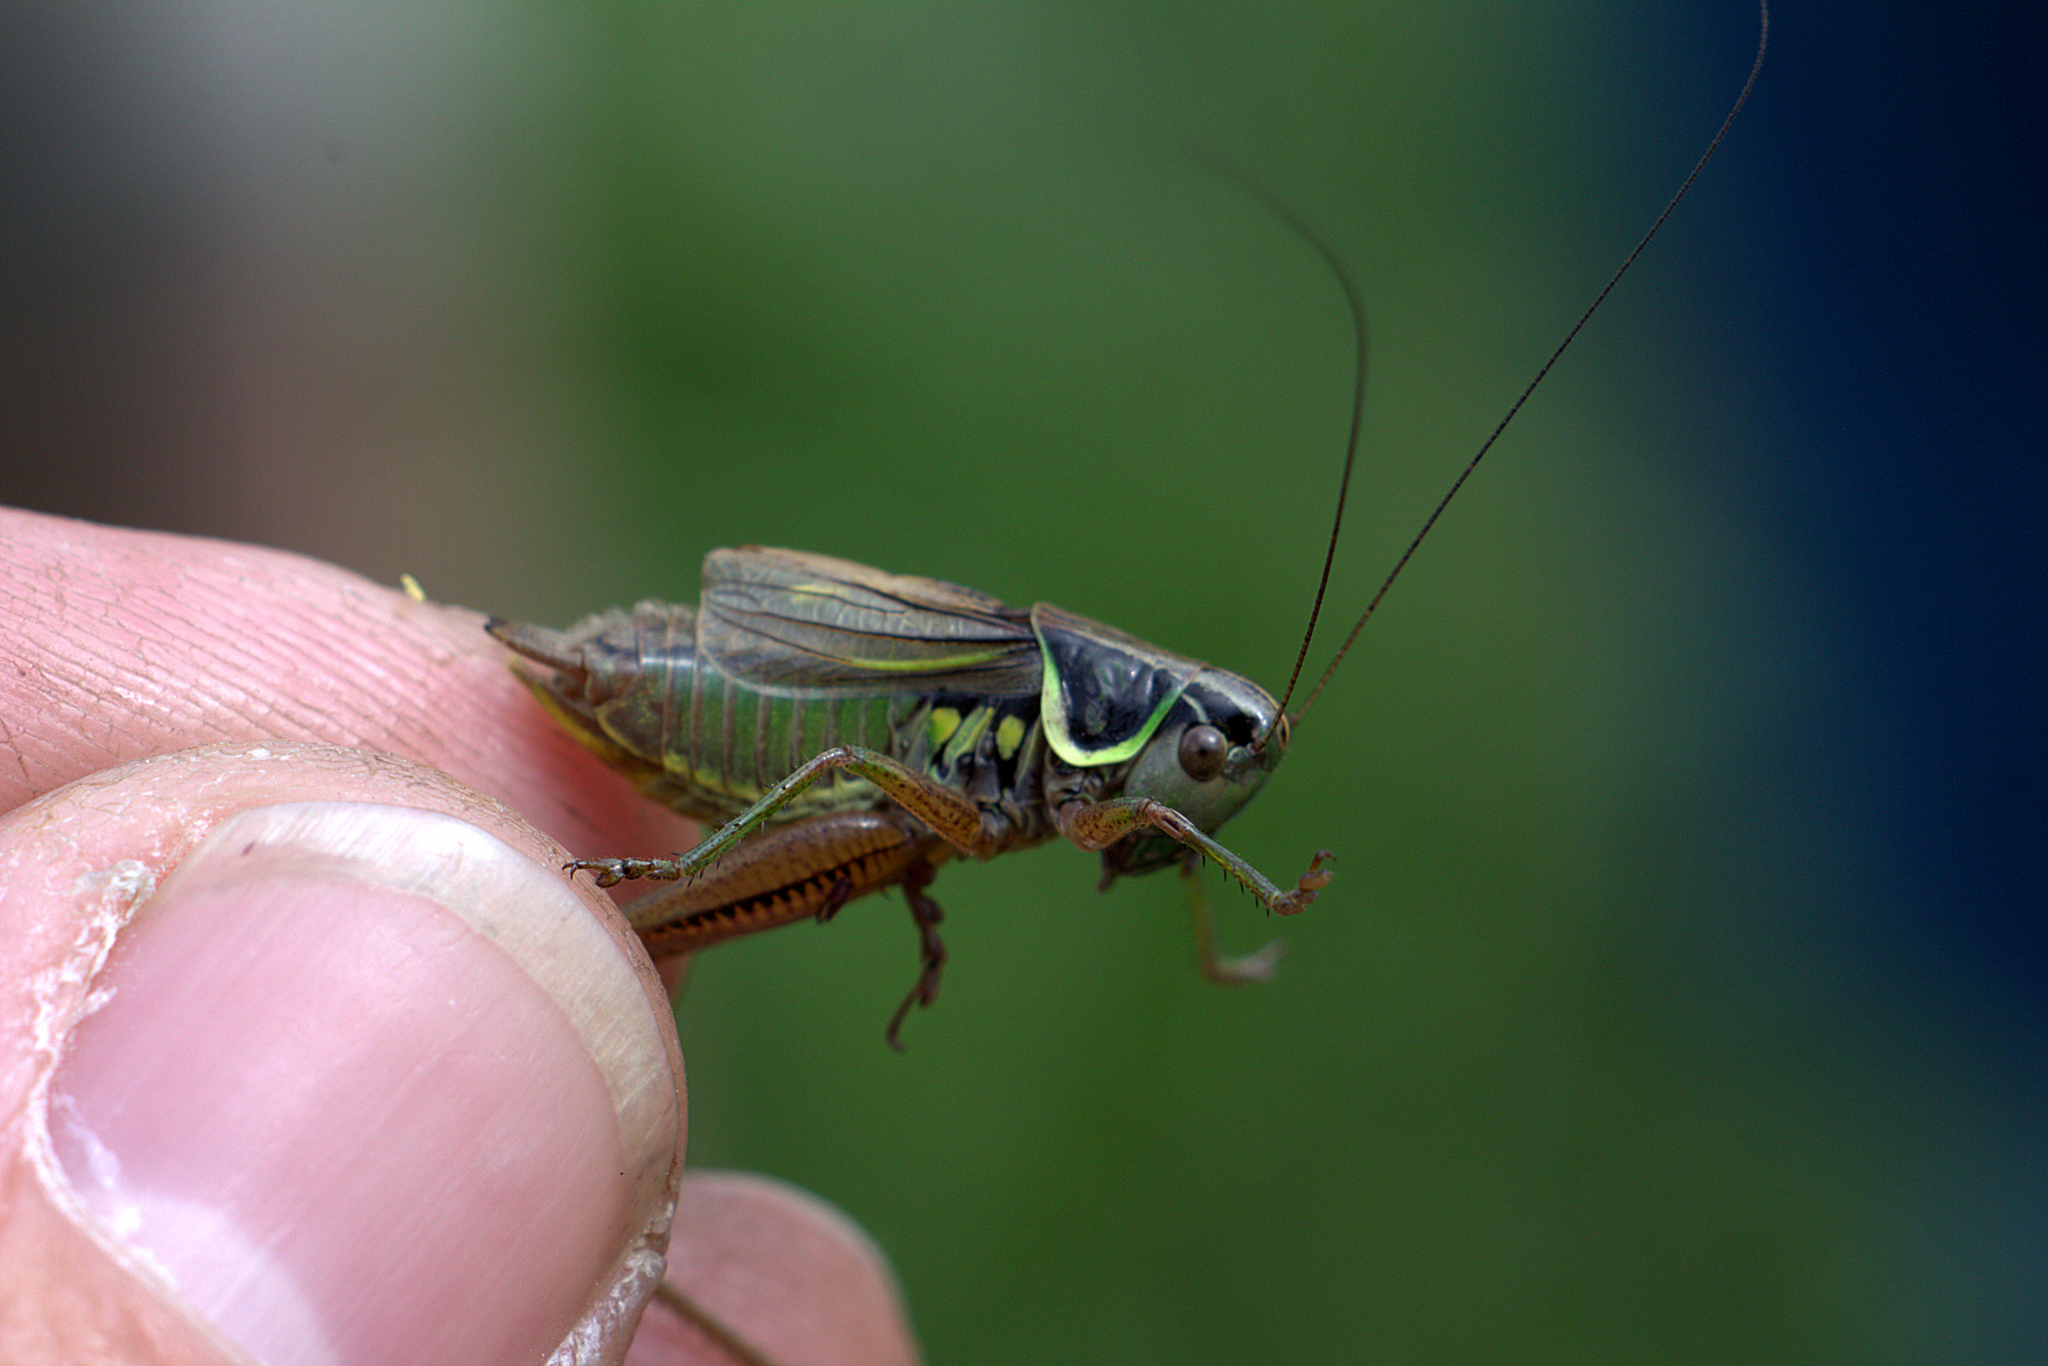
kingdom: Animalia
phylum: Arthropoda
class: Insecta
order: Orthoptera
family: Tettigoniidae
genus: Roeseliana
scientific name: Roeseliana roeselii
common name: Roesel's bush cricket
